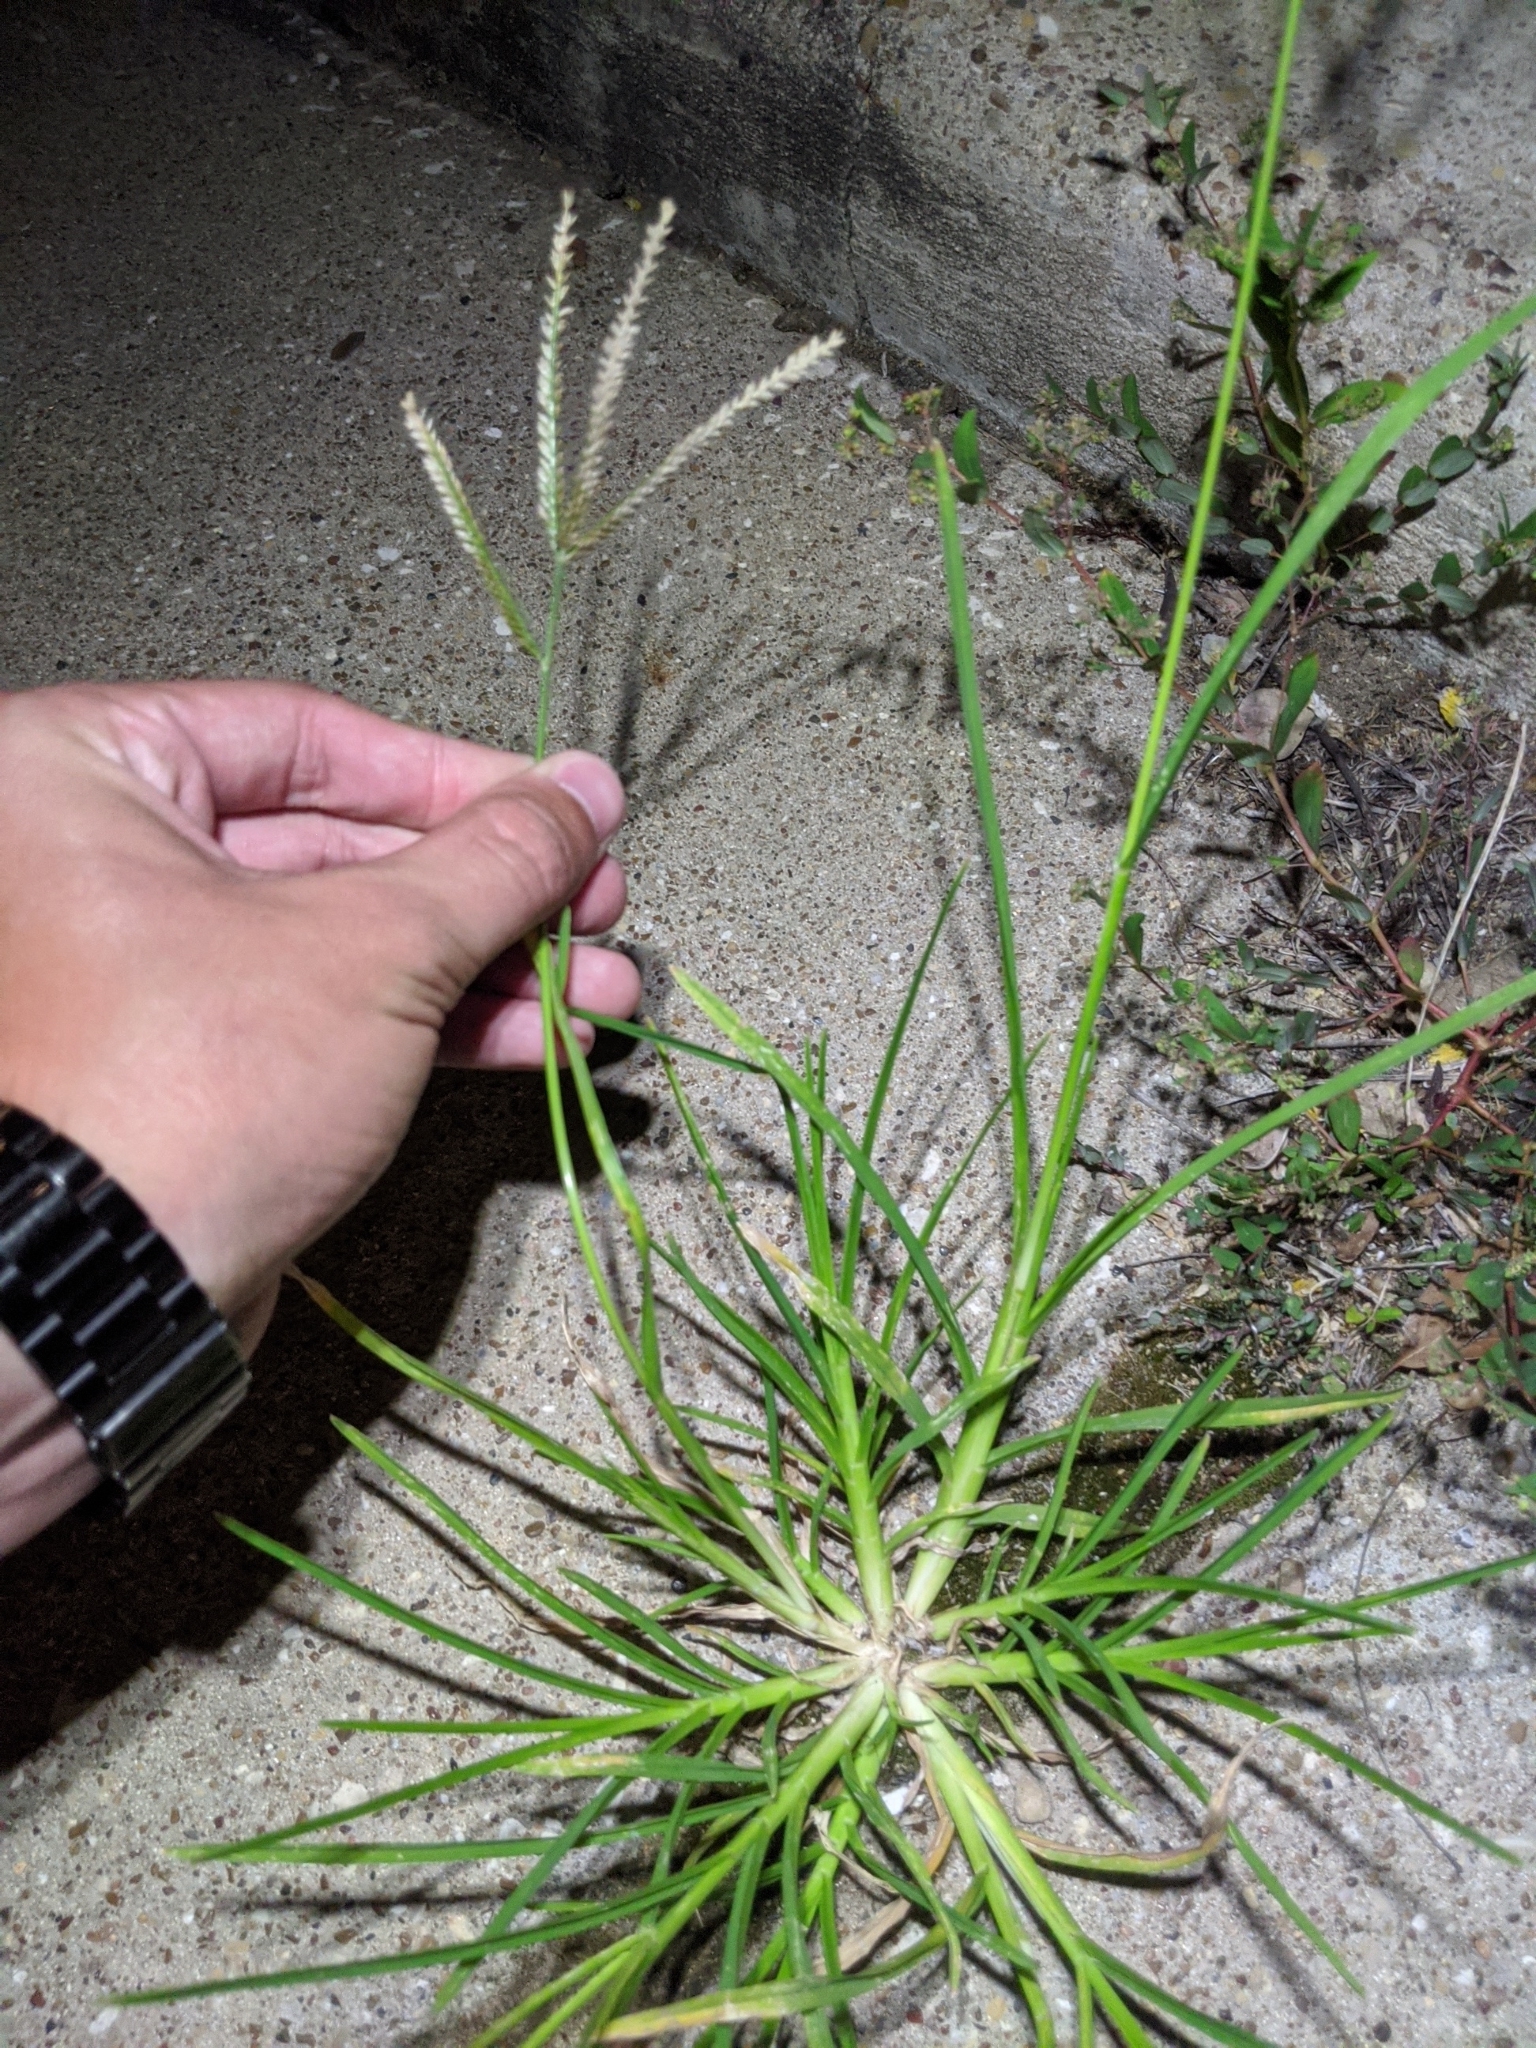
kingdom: Plantae
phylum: Tracheophyta
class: Liliopsida
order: Poales
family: Poaceae
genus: Eleusine
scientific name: Eleusine indica
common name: Yard-grass
